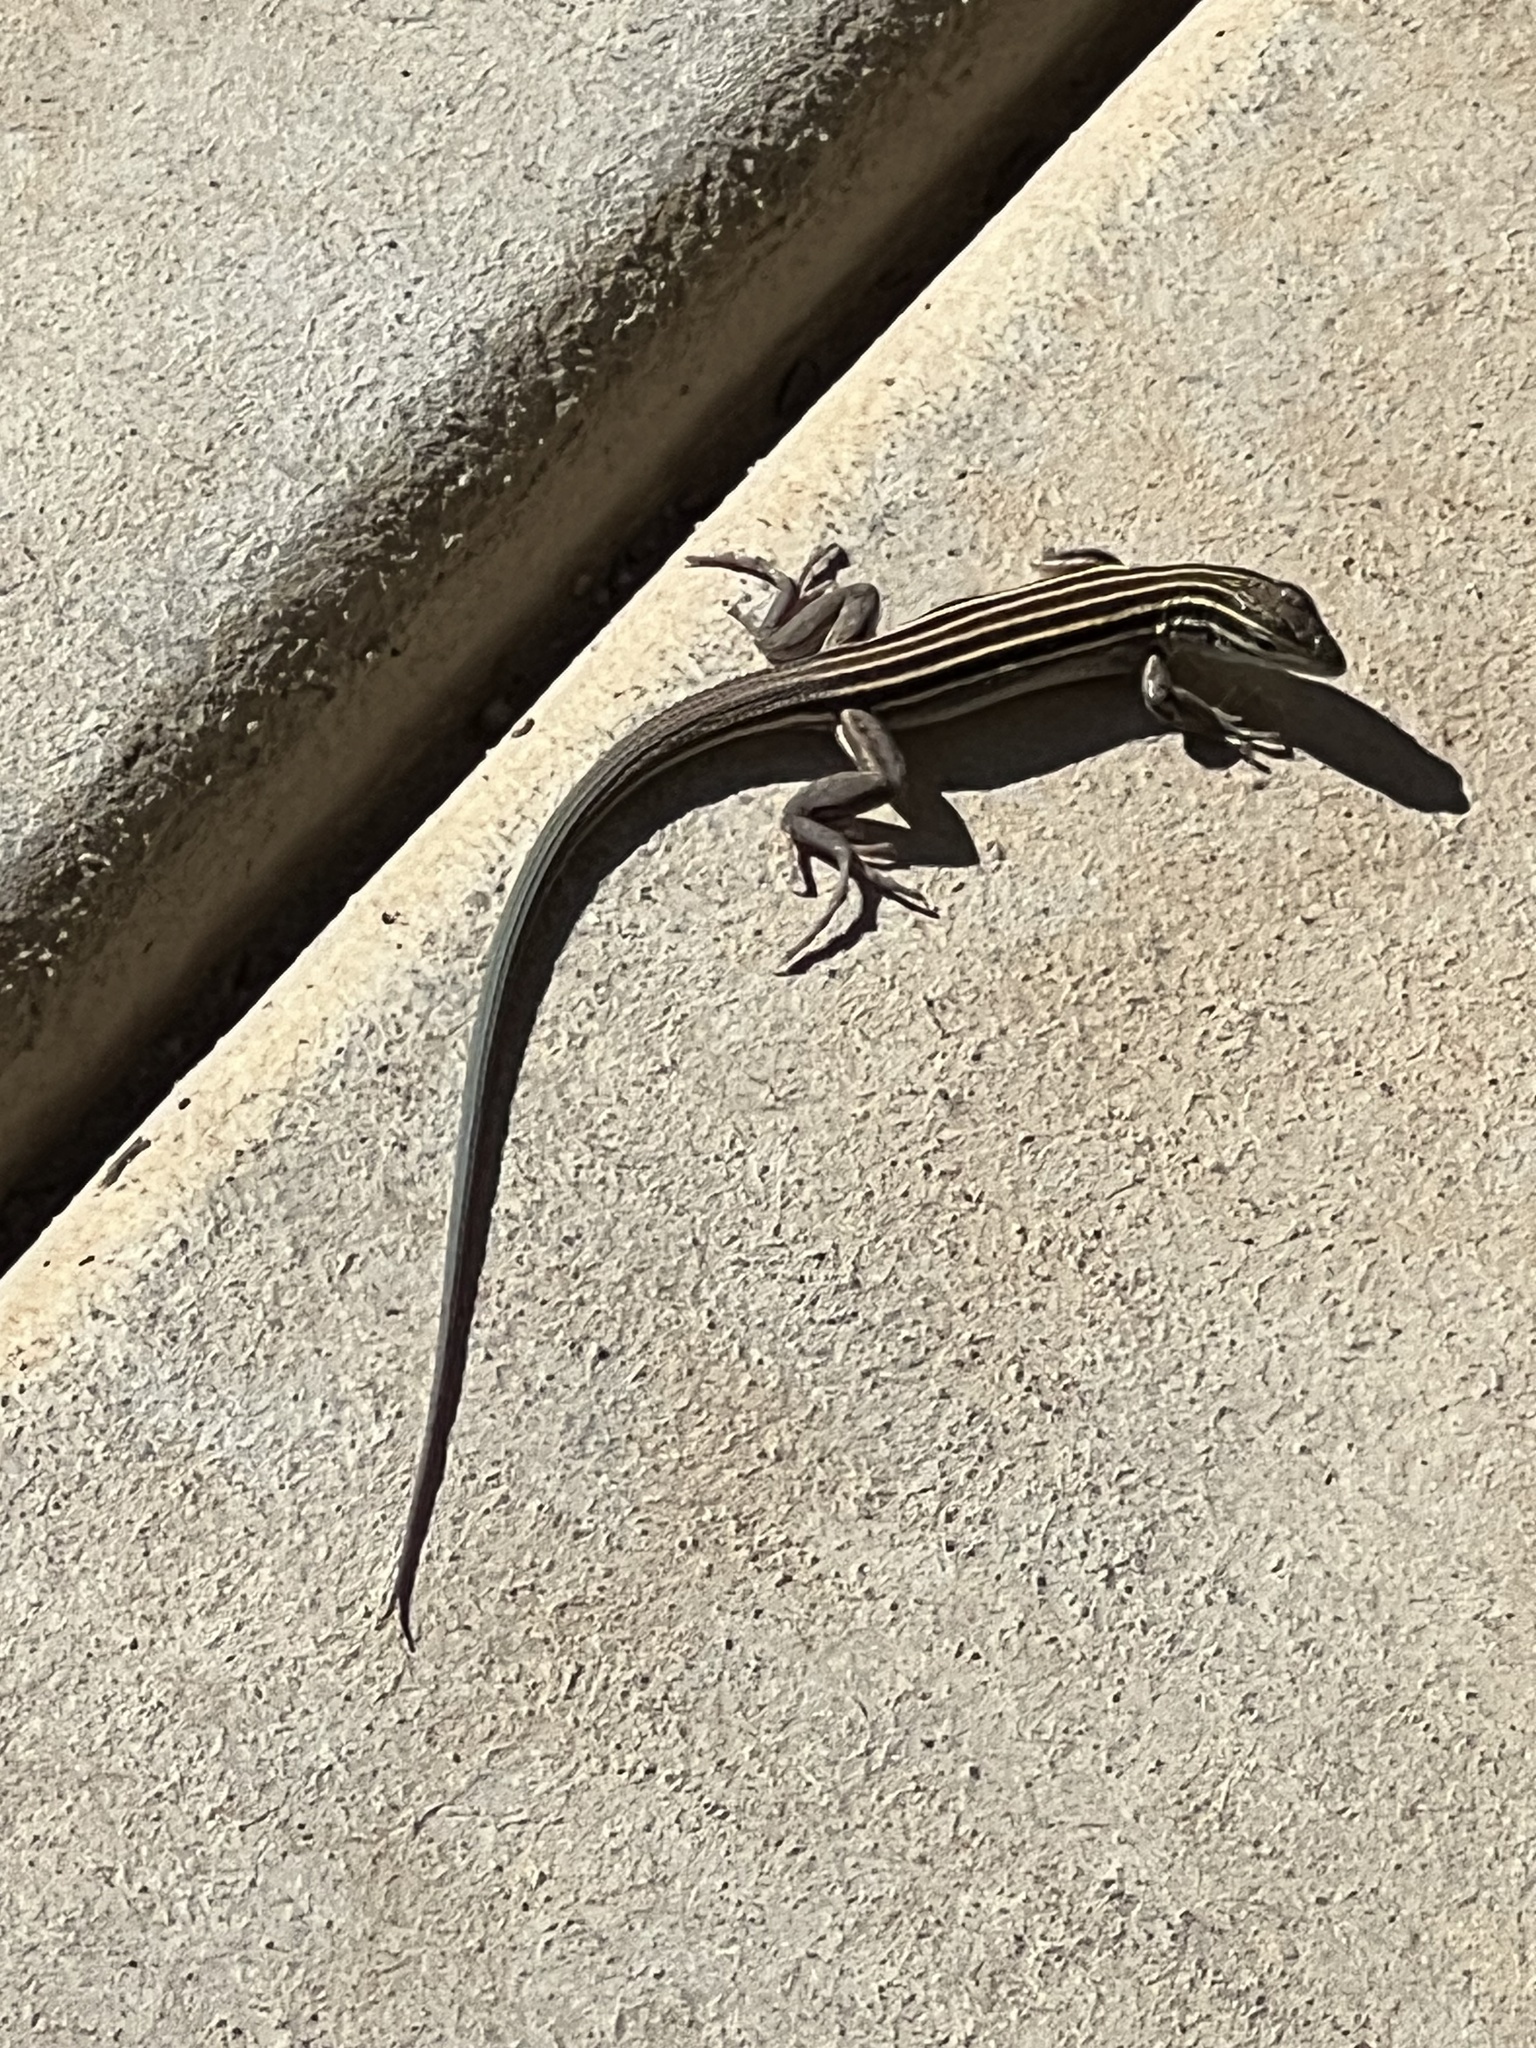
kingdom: Animalia
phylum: Chordata
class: Squamata
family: Teiidae
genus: Aspidoscelis
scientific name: Aspidoscelis uniparens
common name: Desert grassland whiptail
